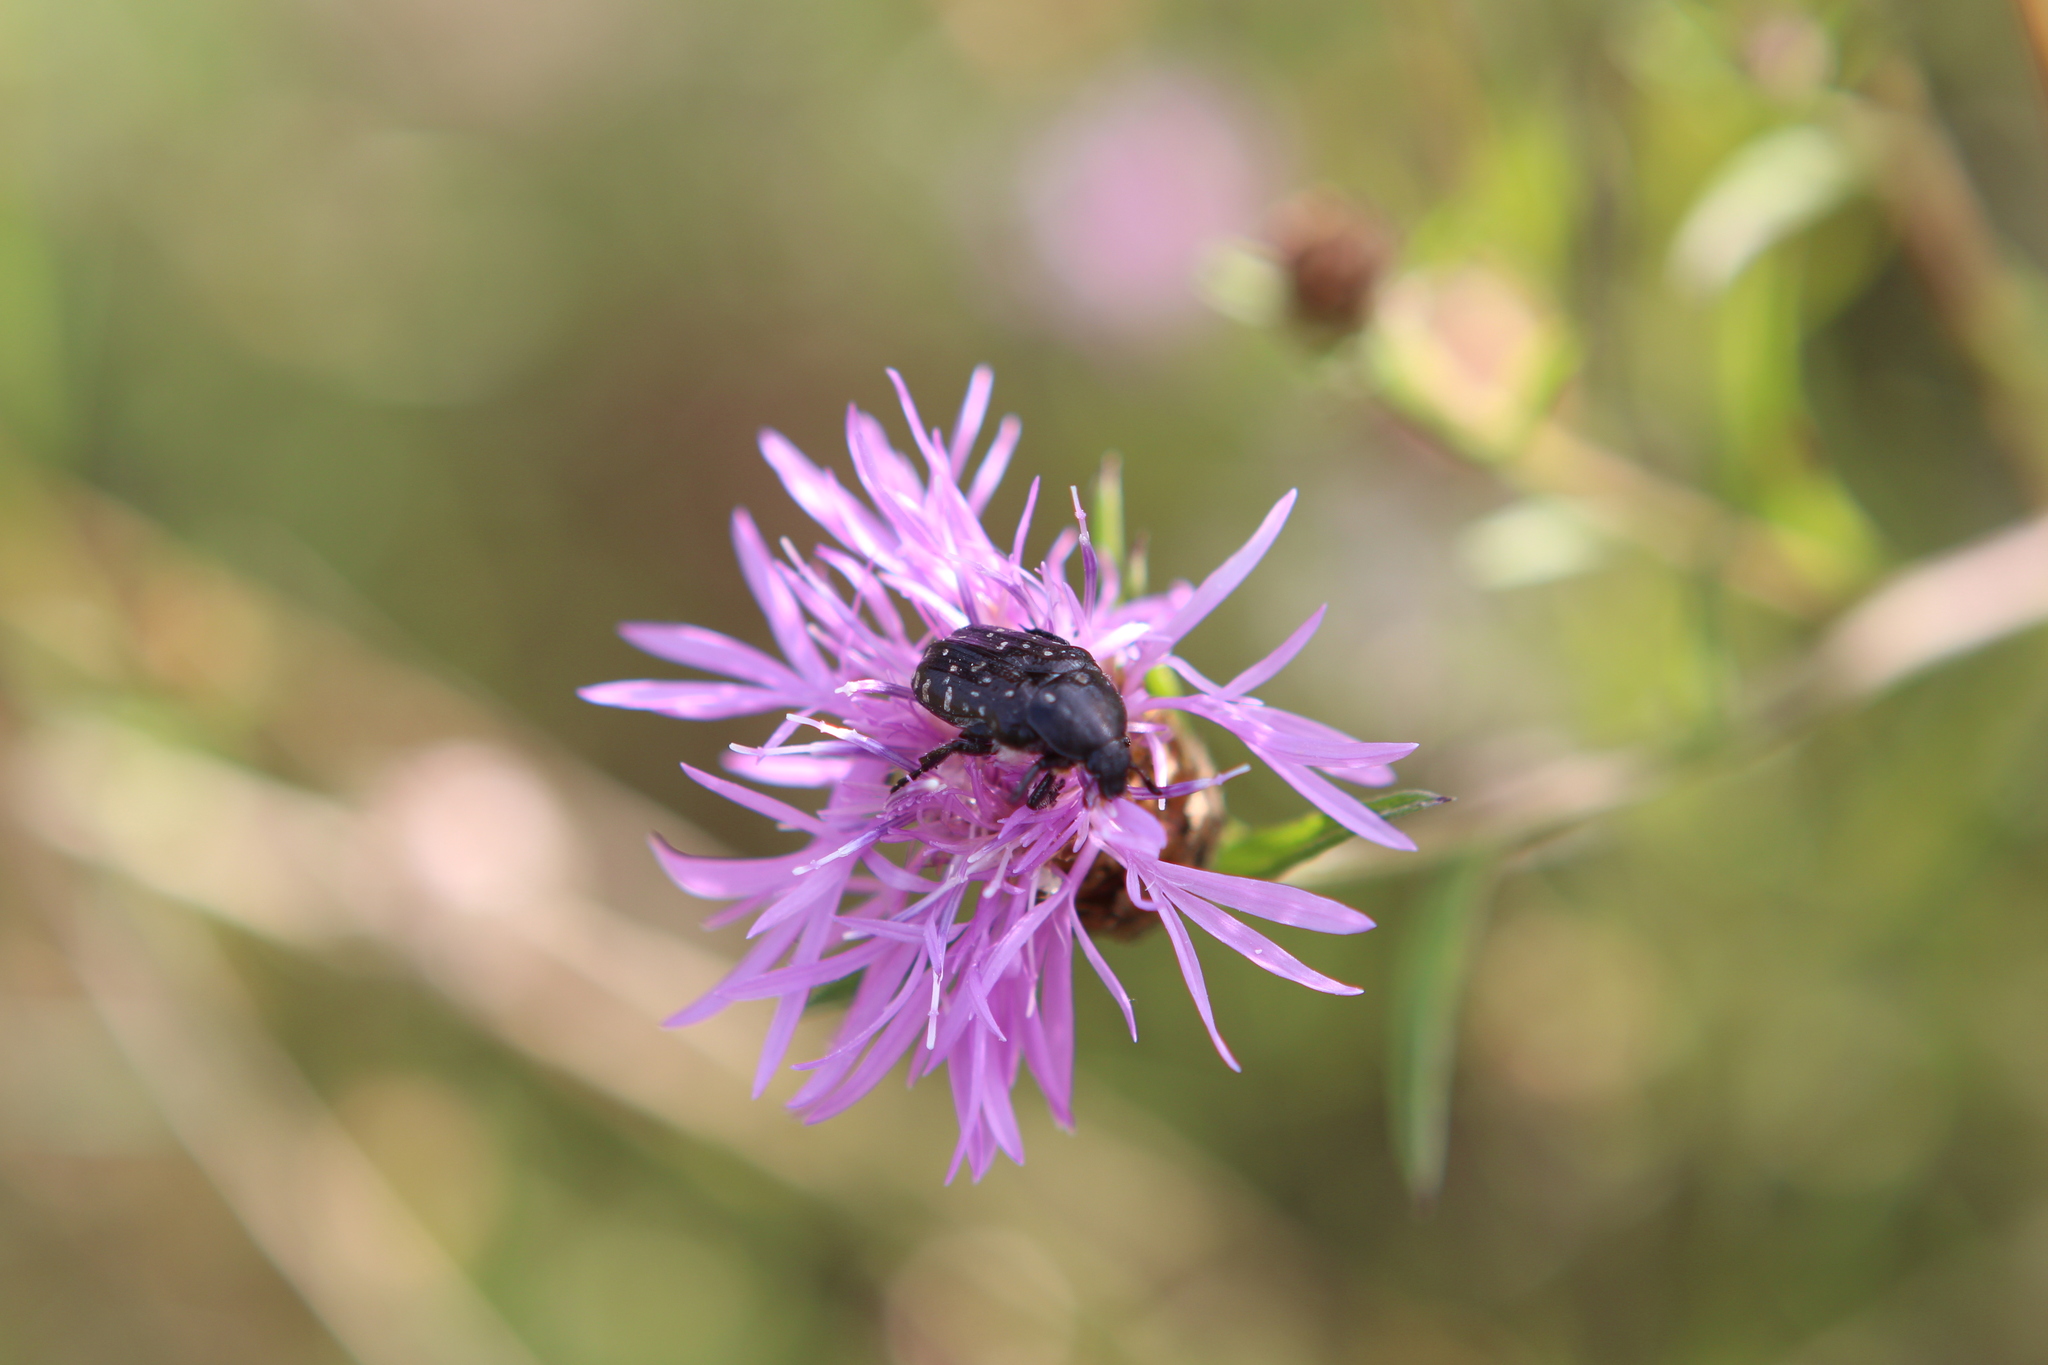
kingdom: Animalia
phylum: Arthropoda
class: Insecta
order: Coleoptera
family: Scarabaeidae
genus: Oxythyrea
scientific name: Oxythyrea funesta
